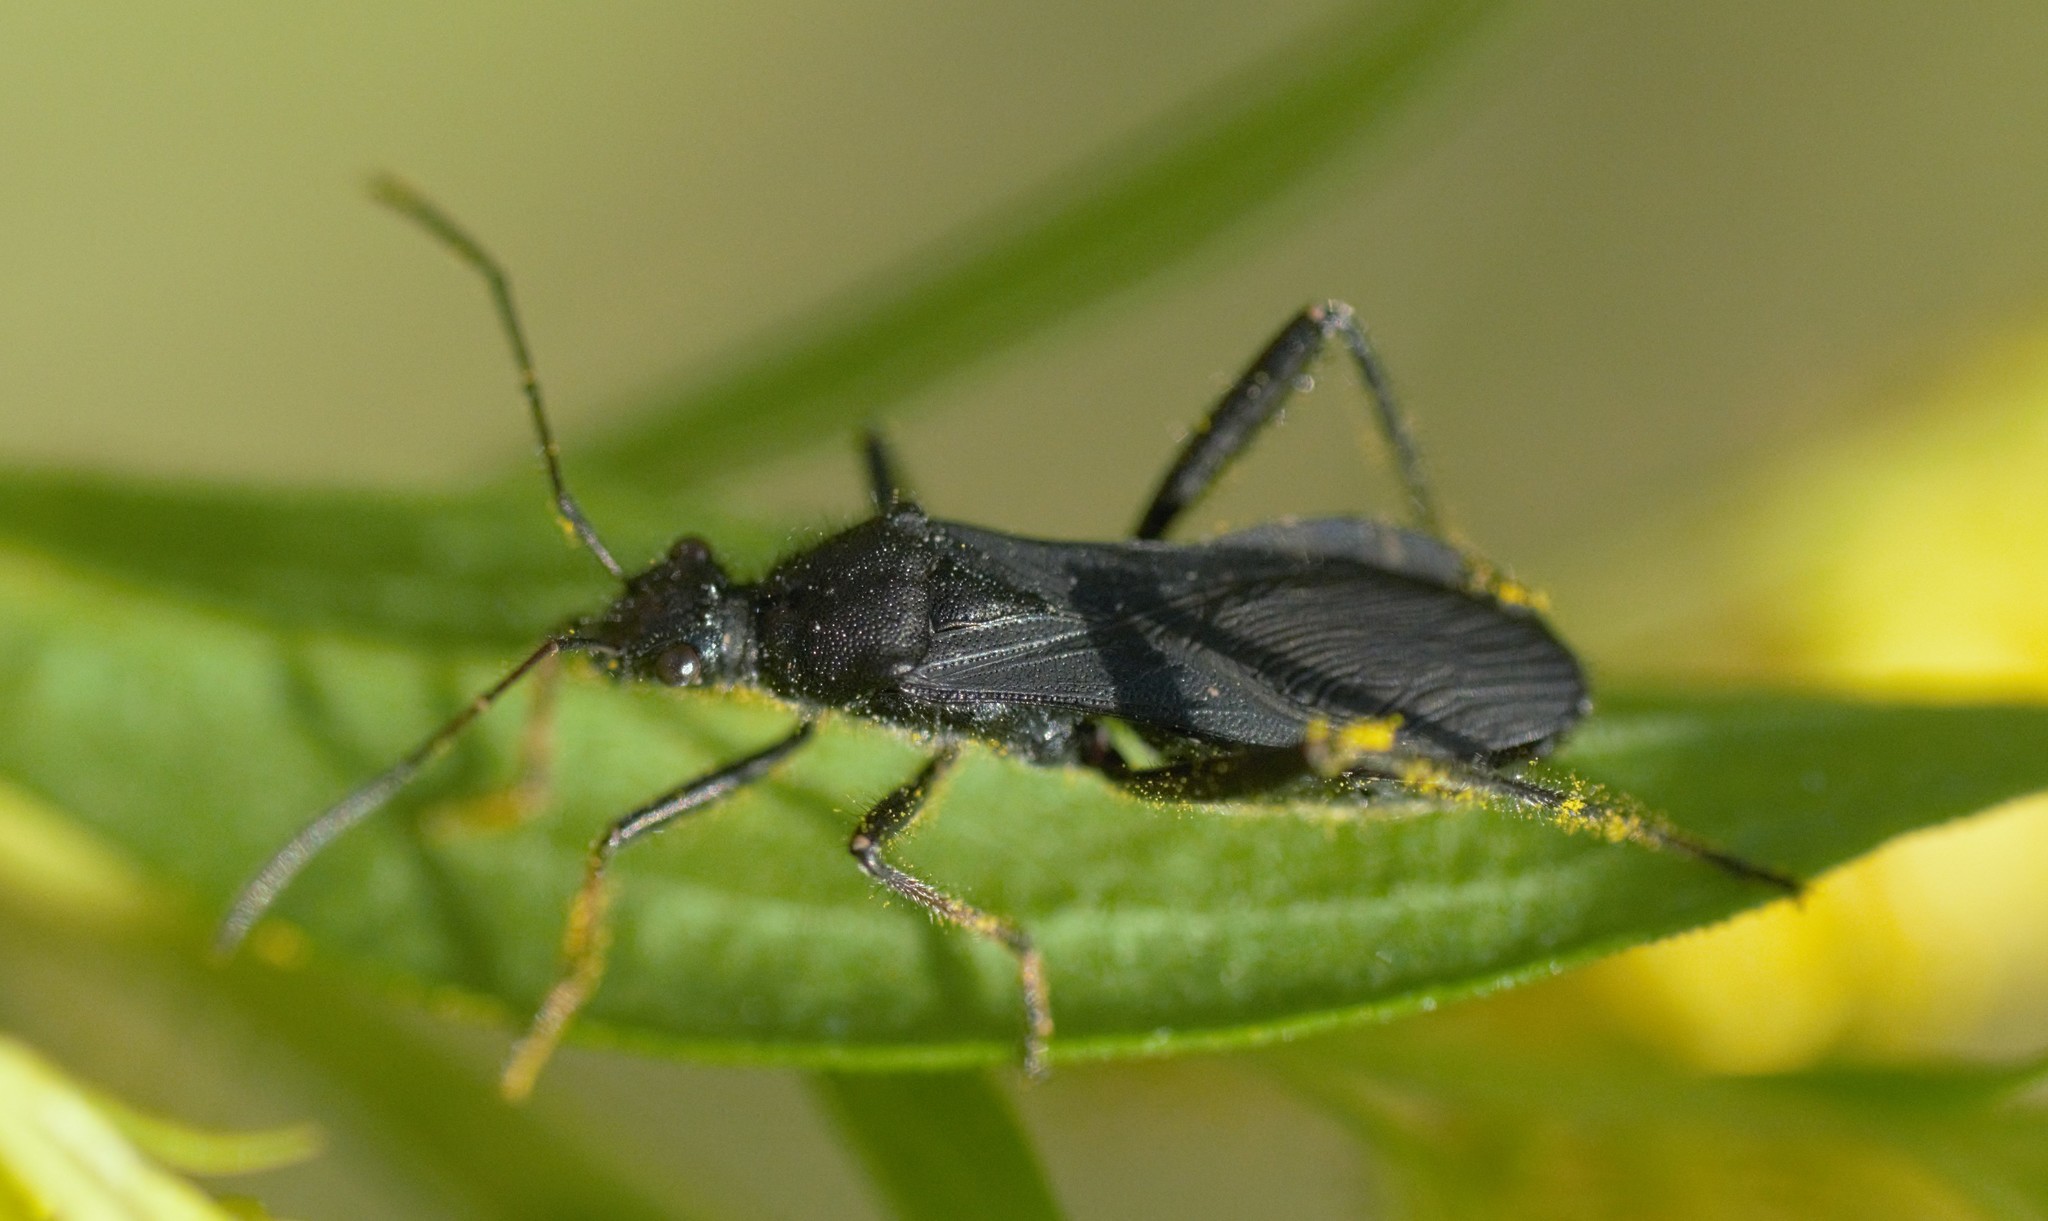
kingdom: Animalia
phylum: Arthropoda
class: Insecta
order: Hemiptera
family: Alydidae
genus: Alydus
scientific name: Alydus eurinus
